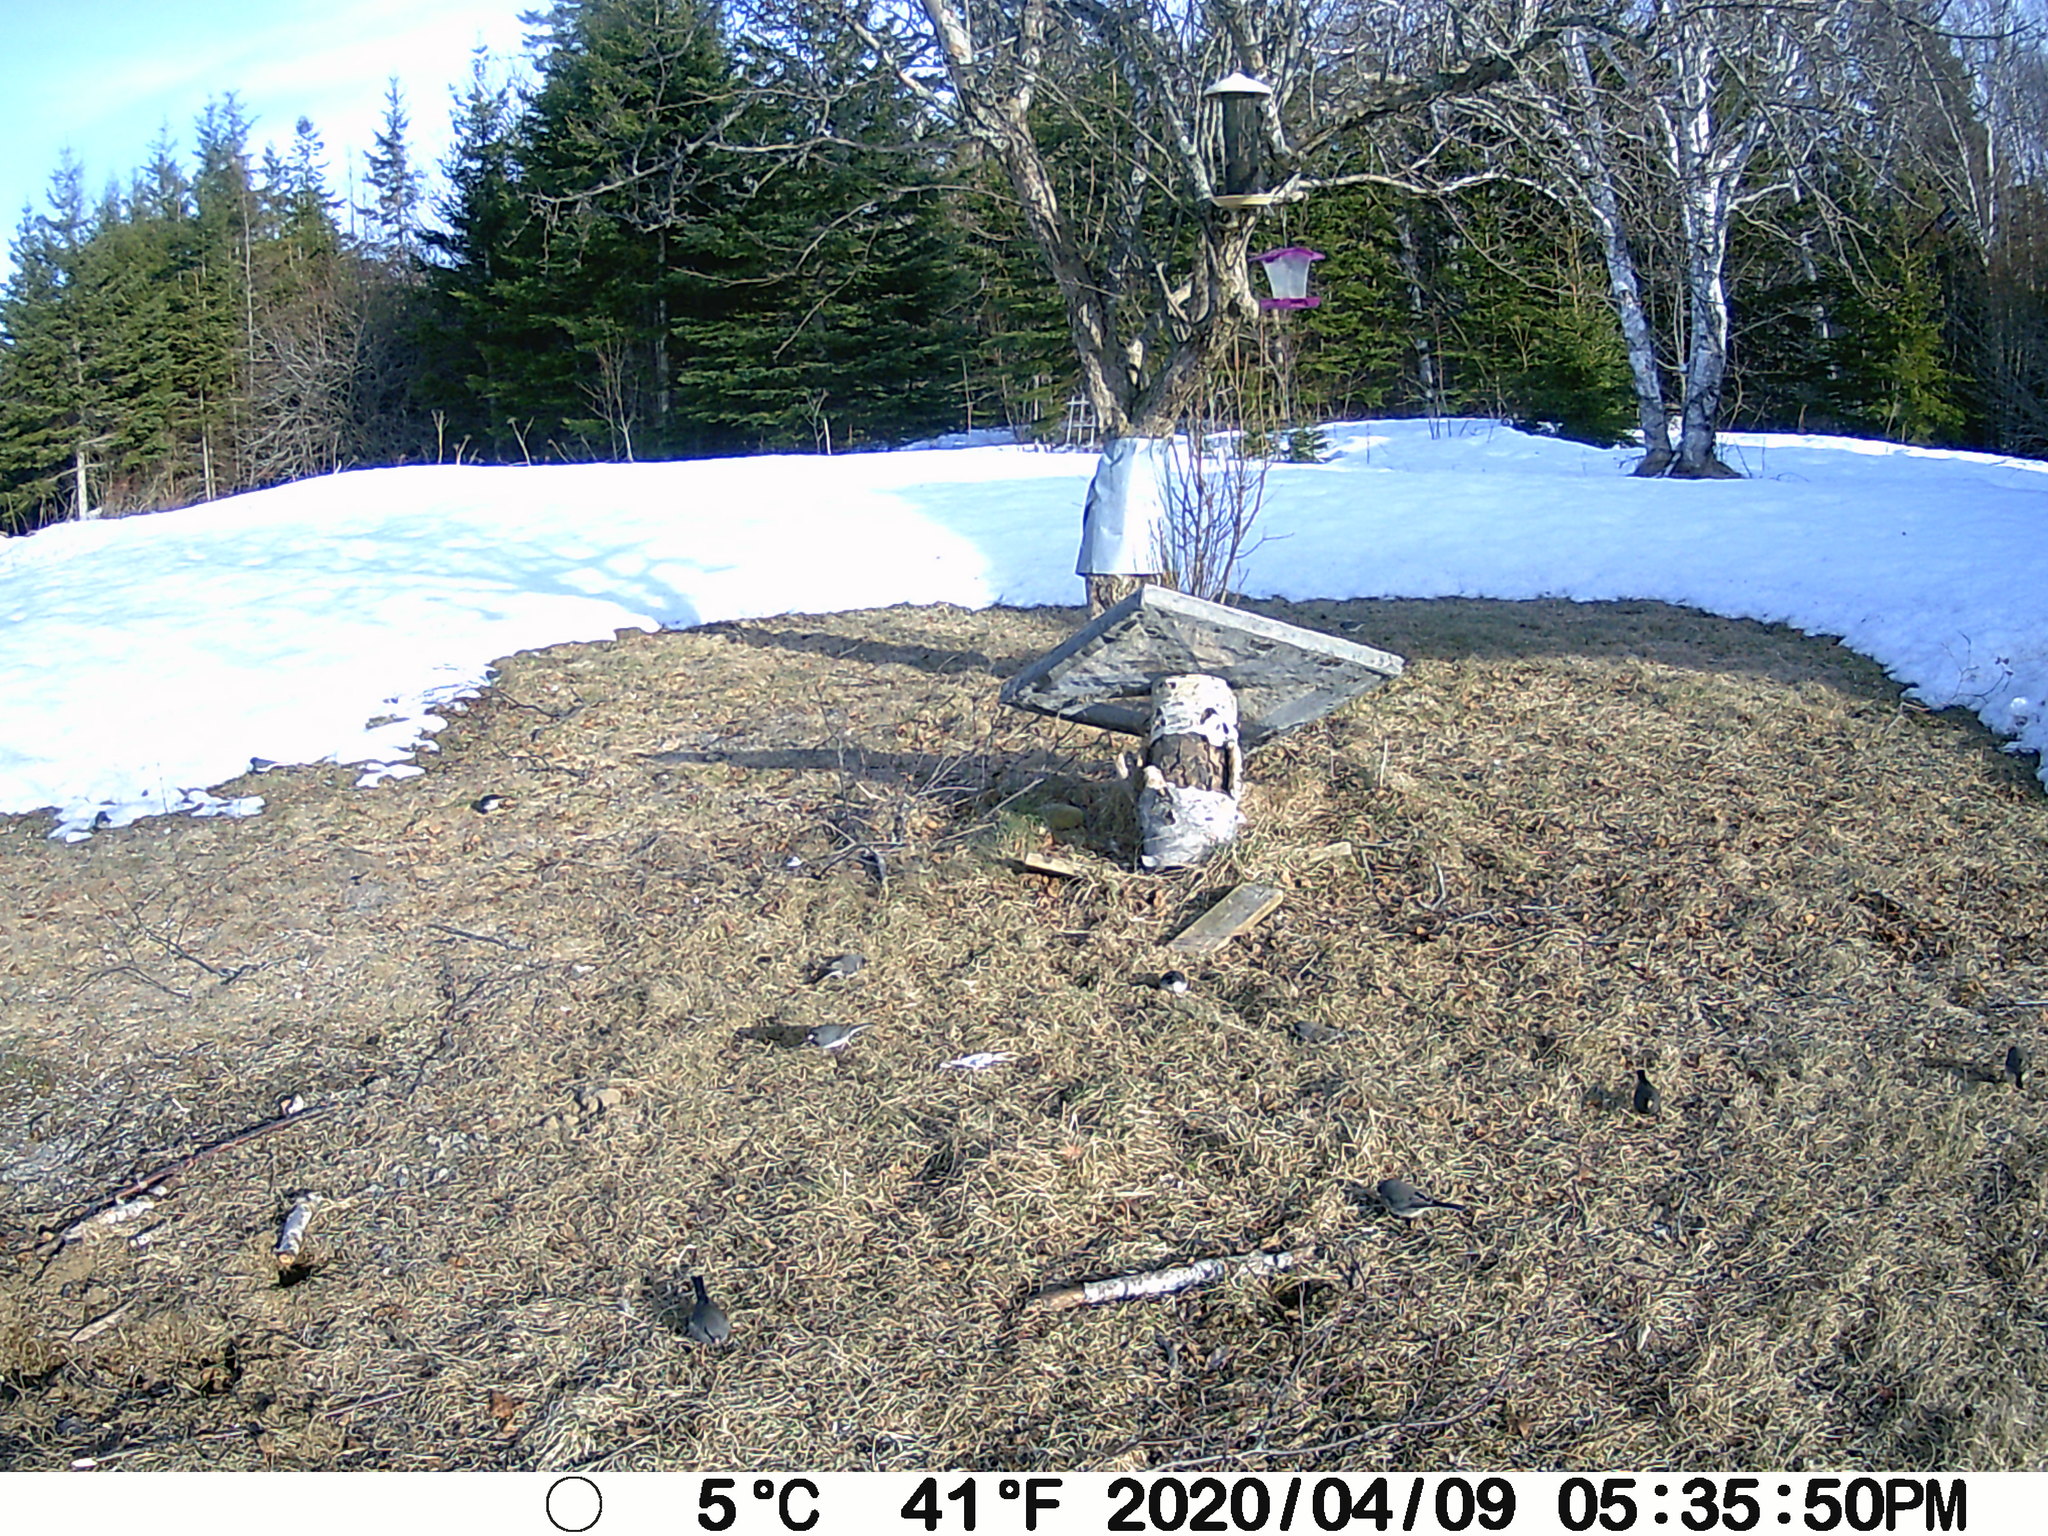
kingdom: Animalia
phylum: Chordata
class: Aves
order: Passeriformes
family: Passerellidae
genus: Junco
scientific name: Junco hyemalis
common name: Dark-eyed junco
